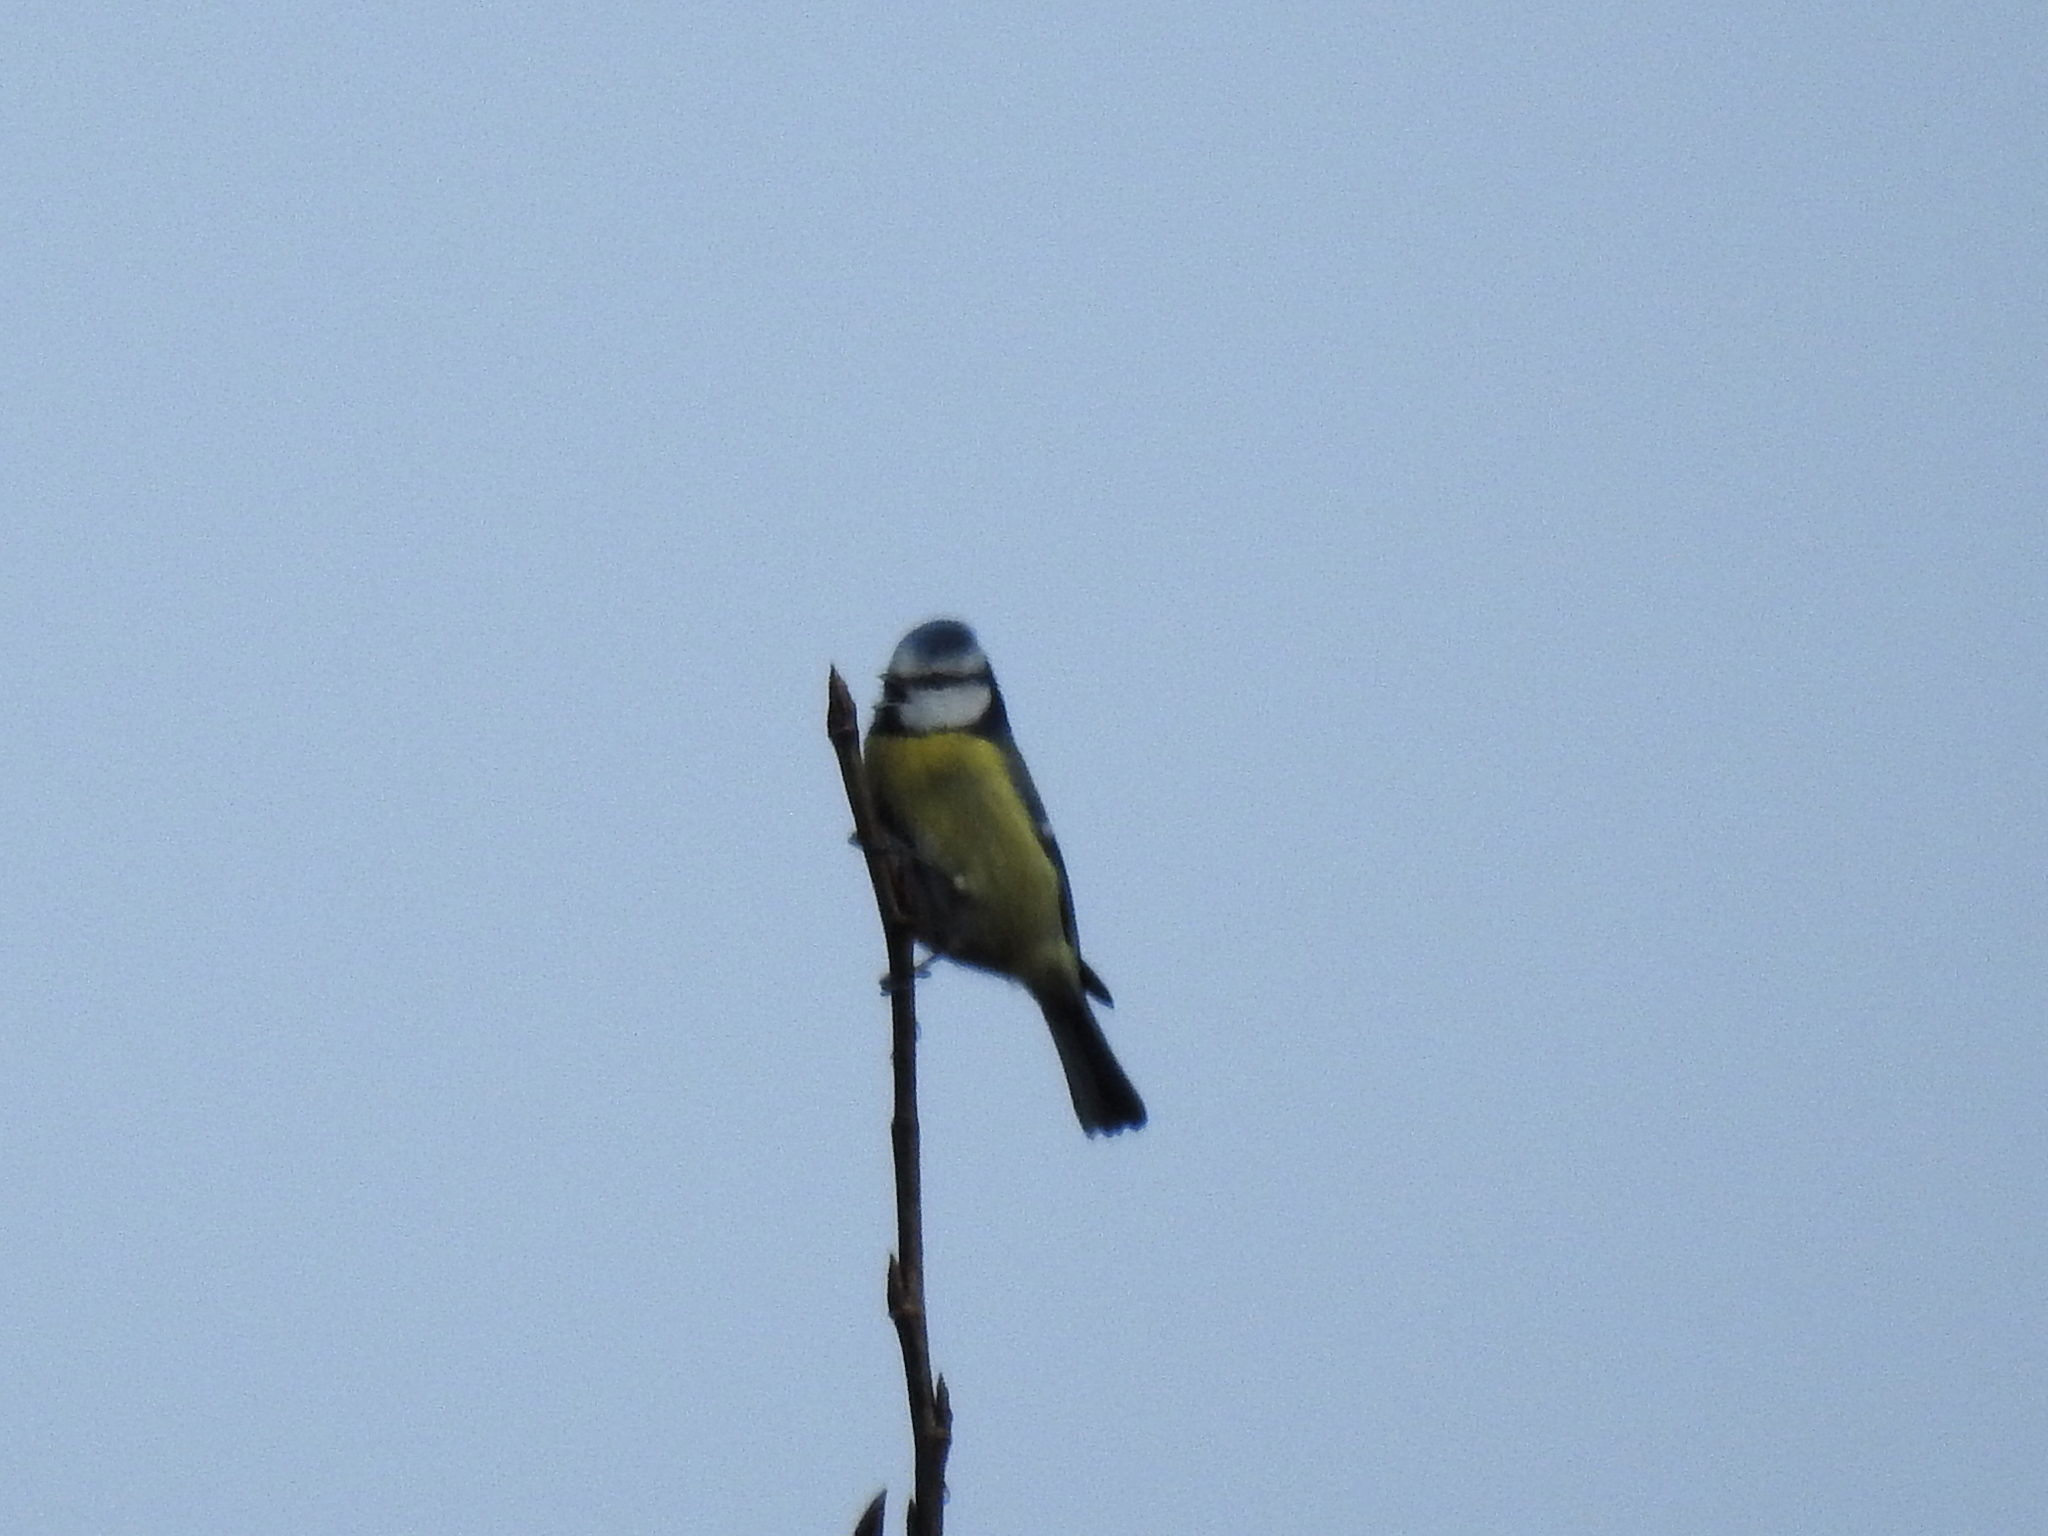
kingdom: Animalia
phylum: Chordata
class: Aves
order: Passeriformes
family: Paridae
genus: Cyanistes
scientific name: Cyanistes caeruleus
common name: Eurasian blue tit
